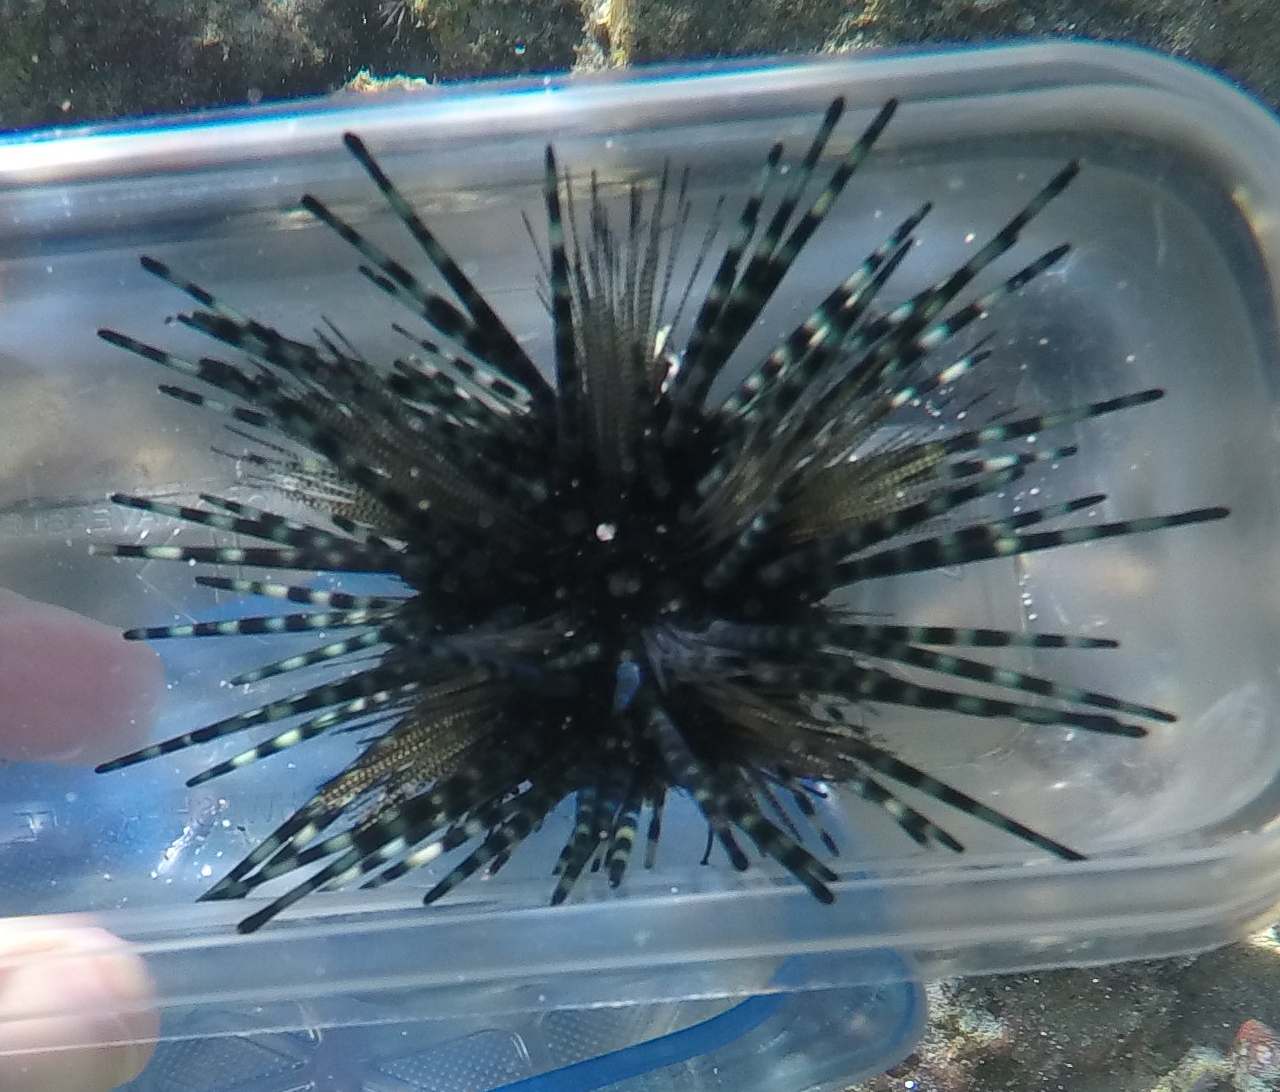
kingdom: Animalia
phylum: Echinodermata
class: Echinoidea
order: Diadematoida
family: Diadematidae
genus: Echinothrix
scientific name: Echinothrix calamaris
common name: Banded sea urchin
